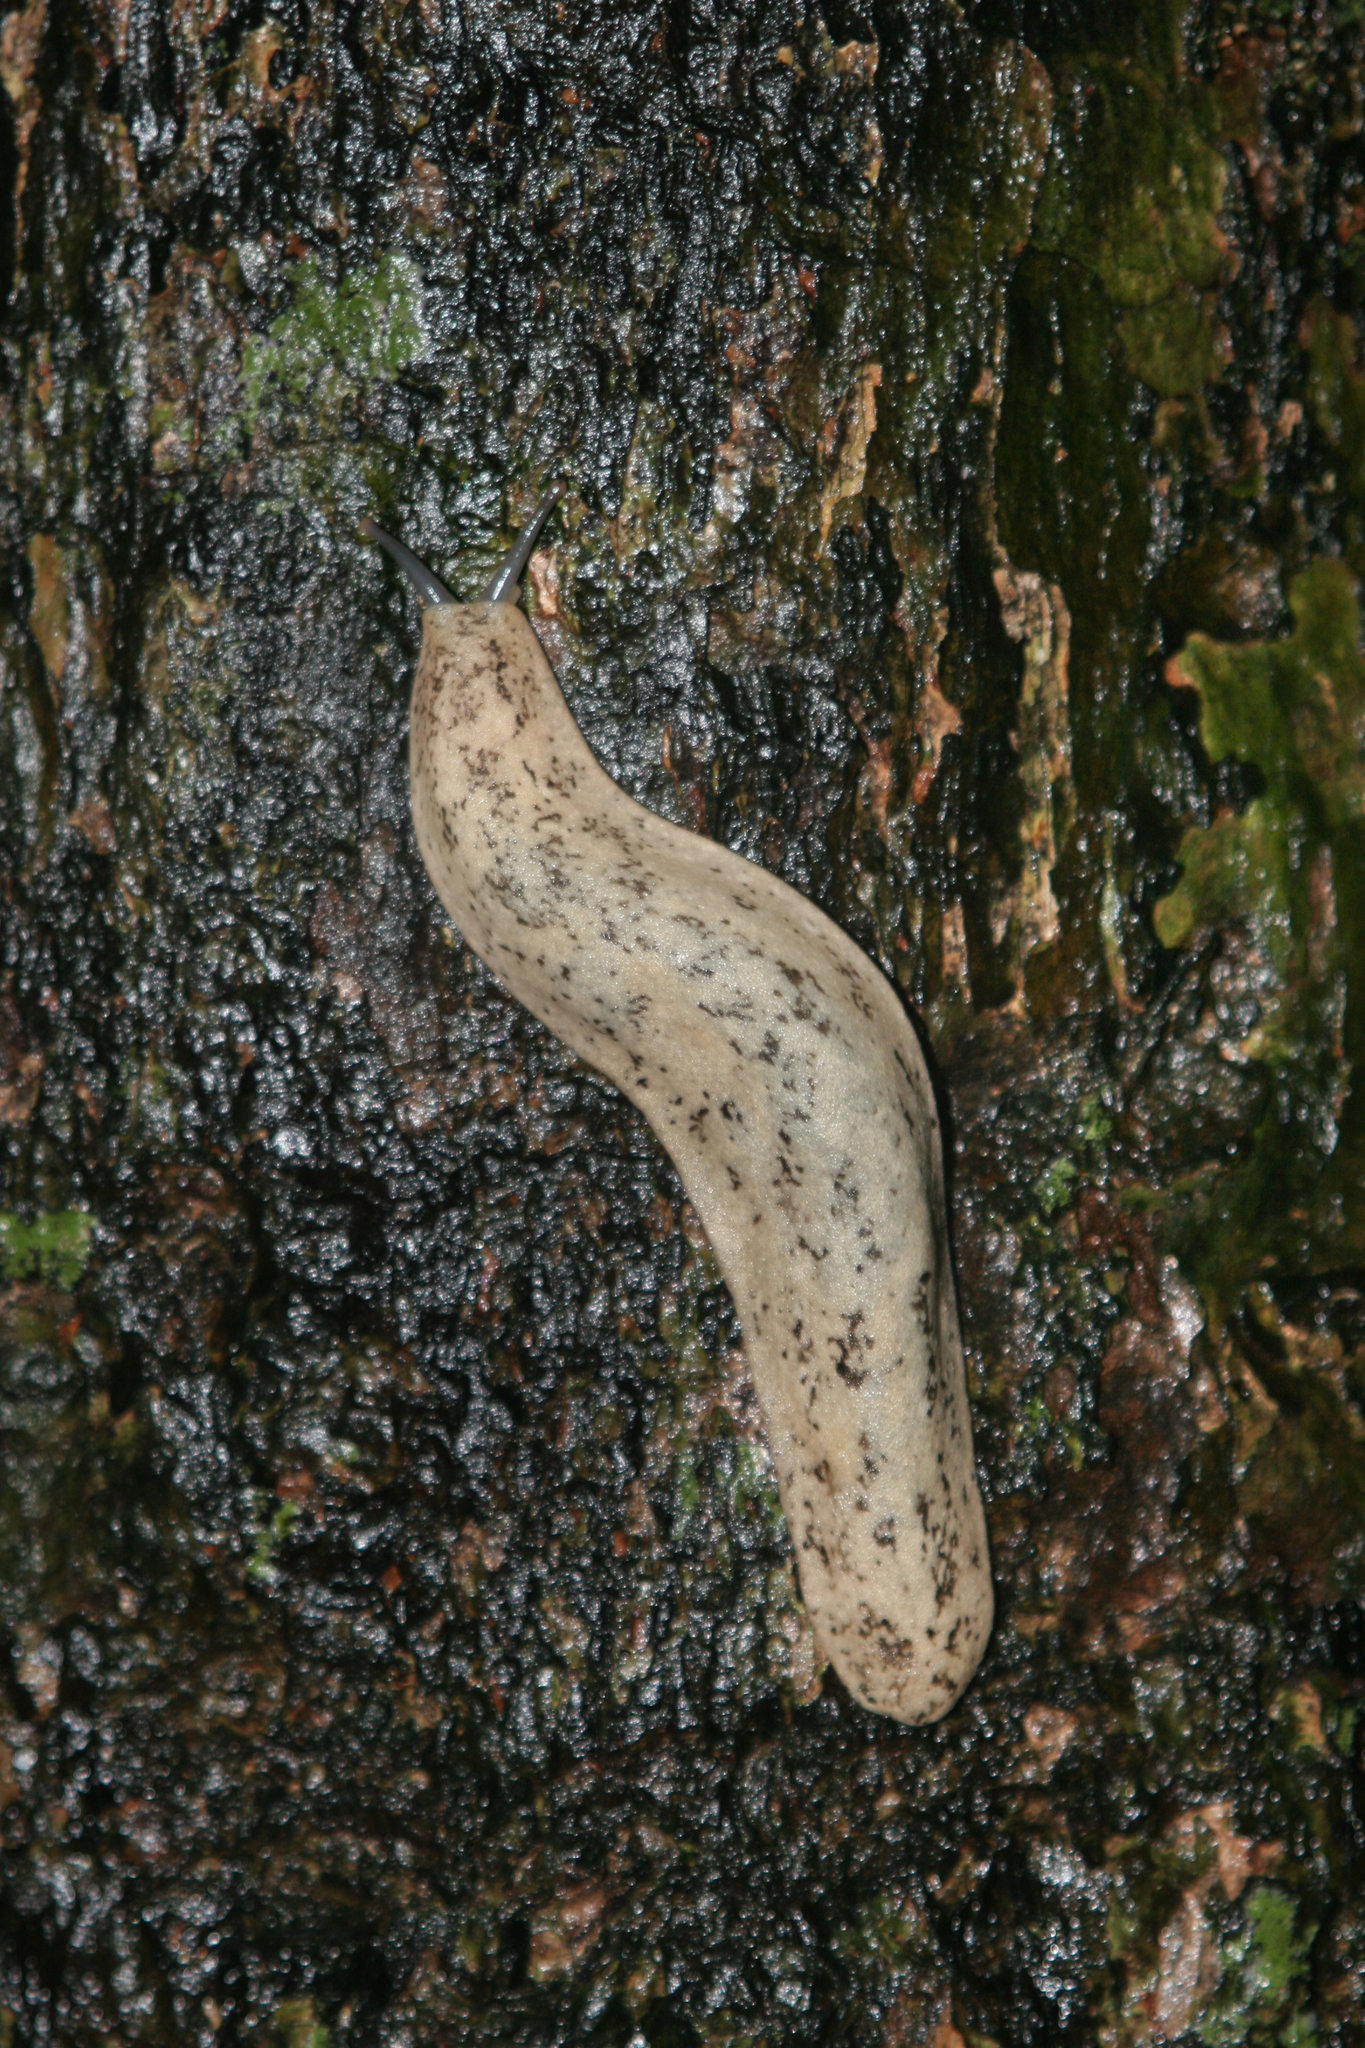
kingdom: Animalia
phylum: Mollusca
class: Gastropoda
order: Systellommatophora
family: Veronicellidae
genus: Leidyula
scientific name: Leidyula sloanii
